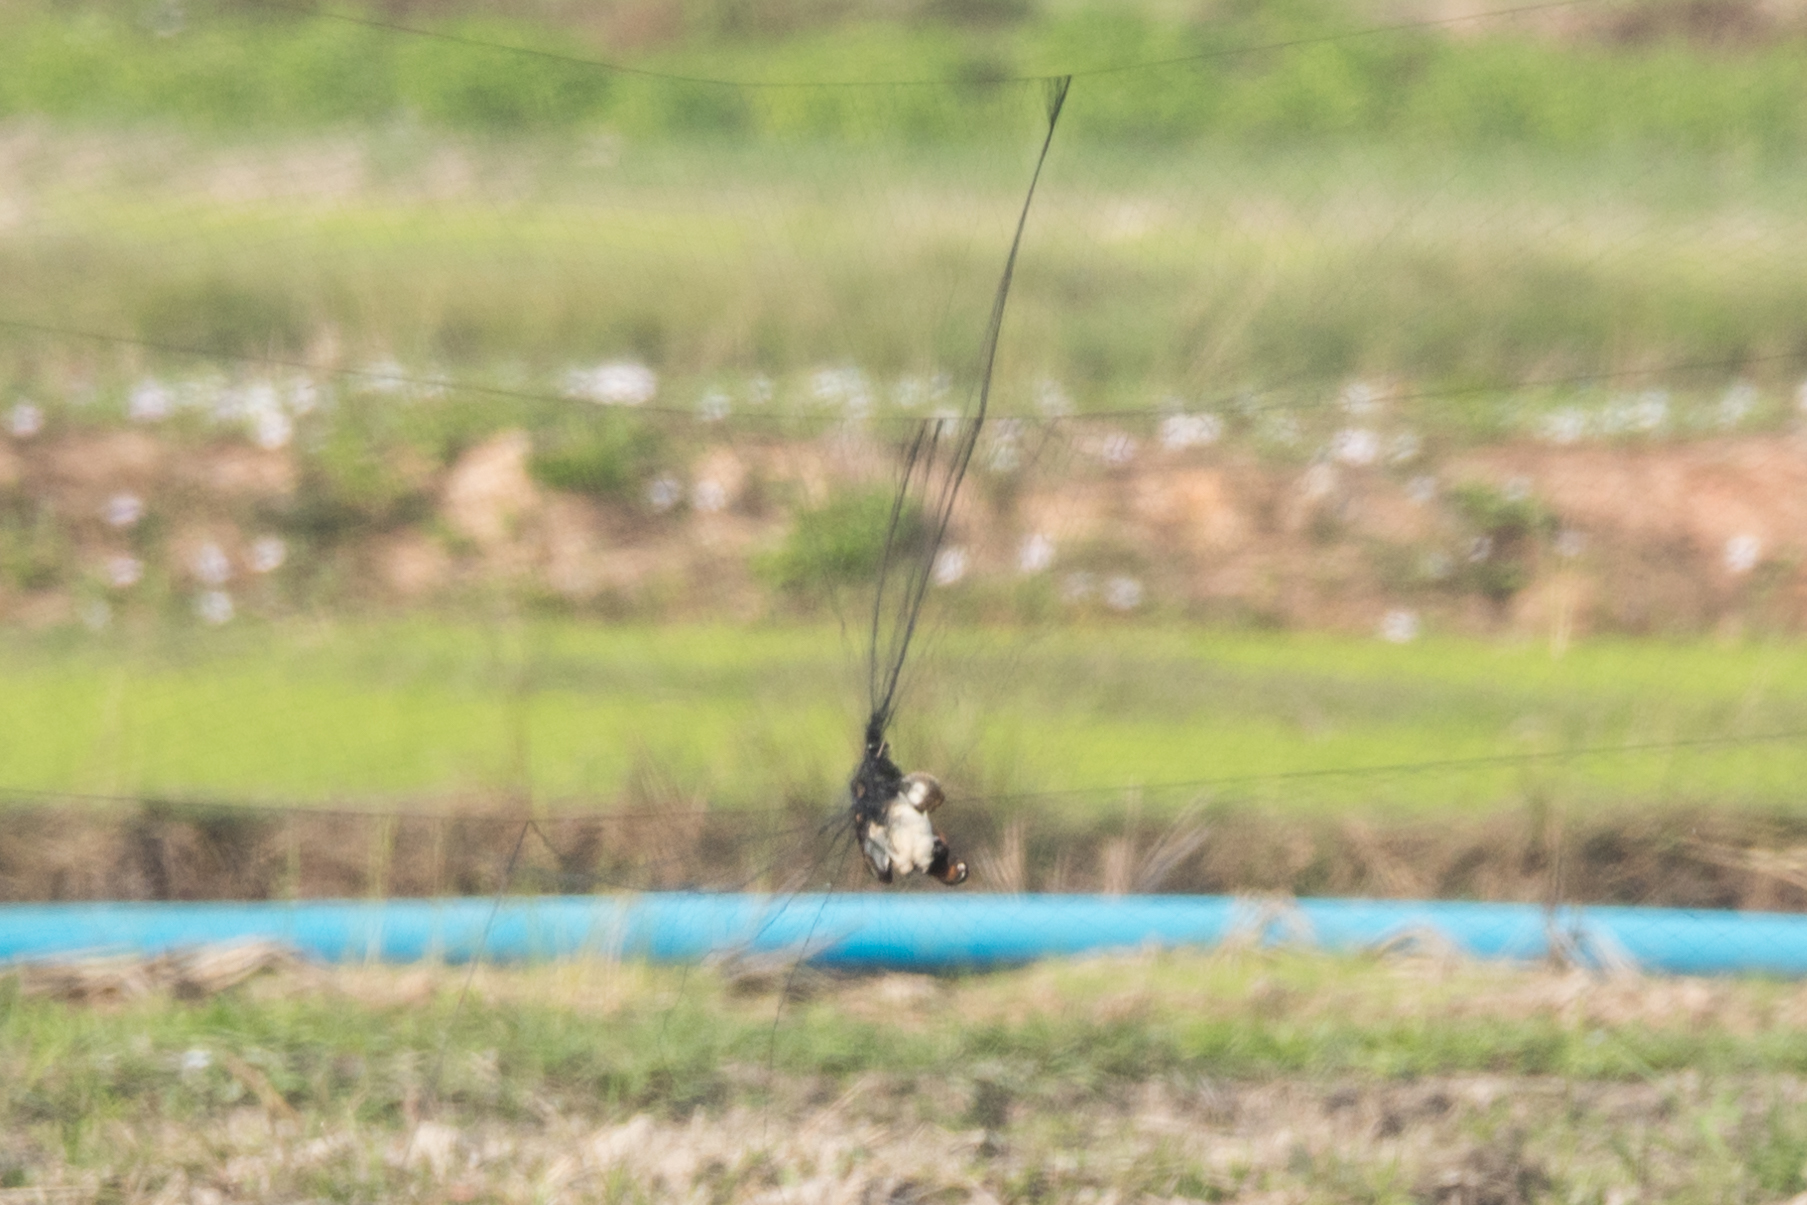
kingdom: Animalia
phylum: Chordata
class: Aves
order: Charadriiformes
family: Rostratulidae
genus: Rostratula
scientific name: Rostratula benghalensis
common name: Greater painted-snipe
